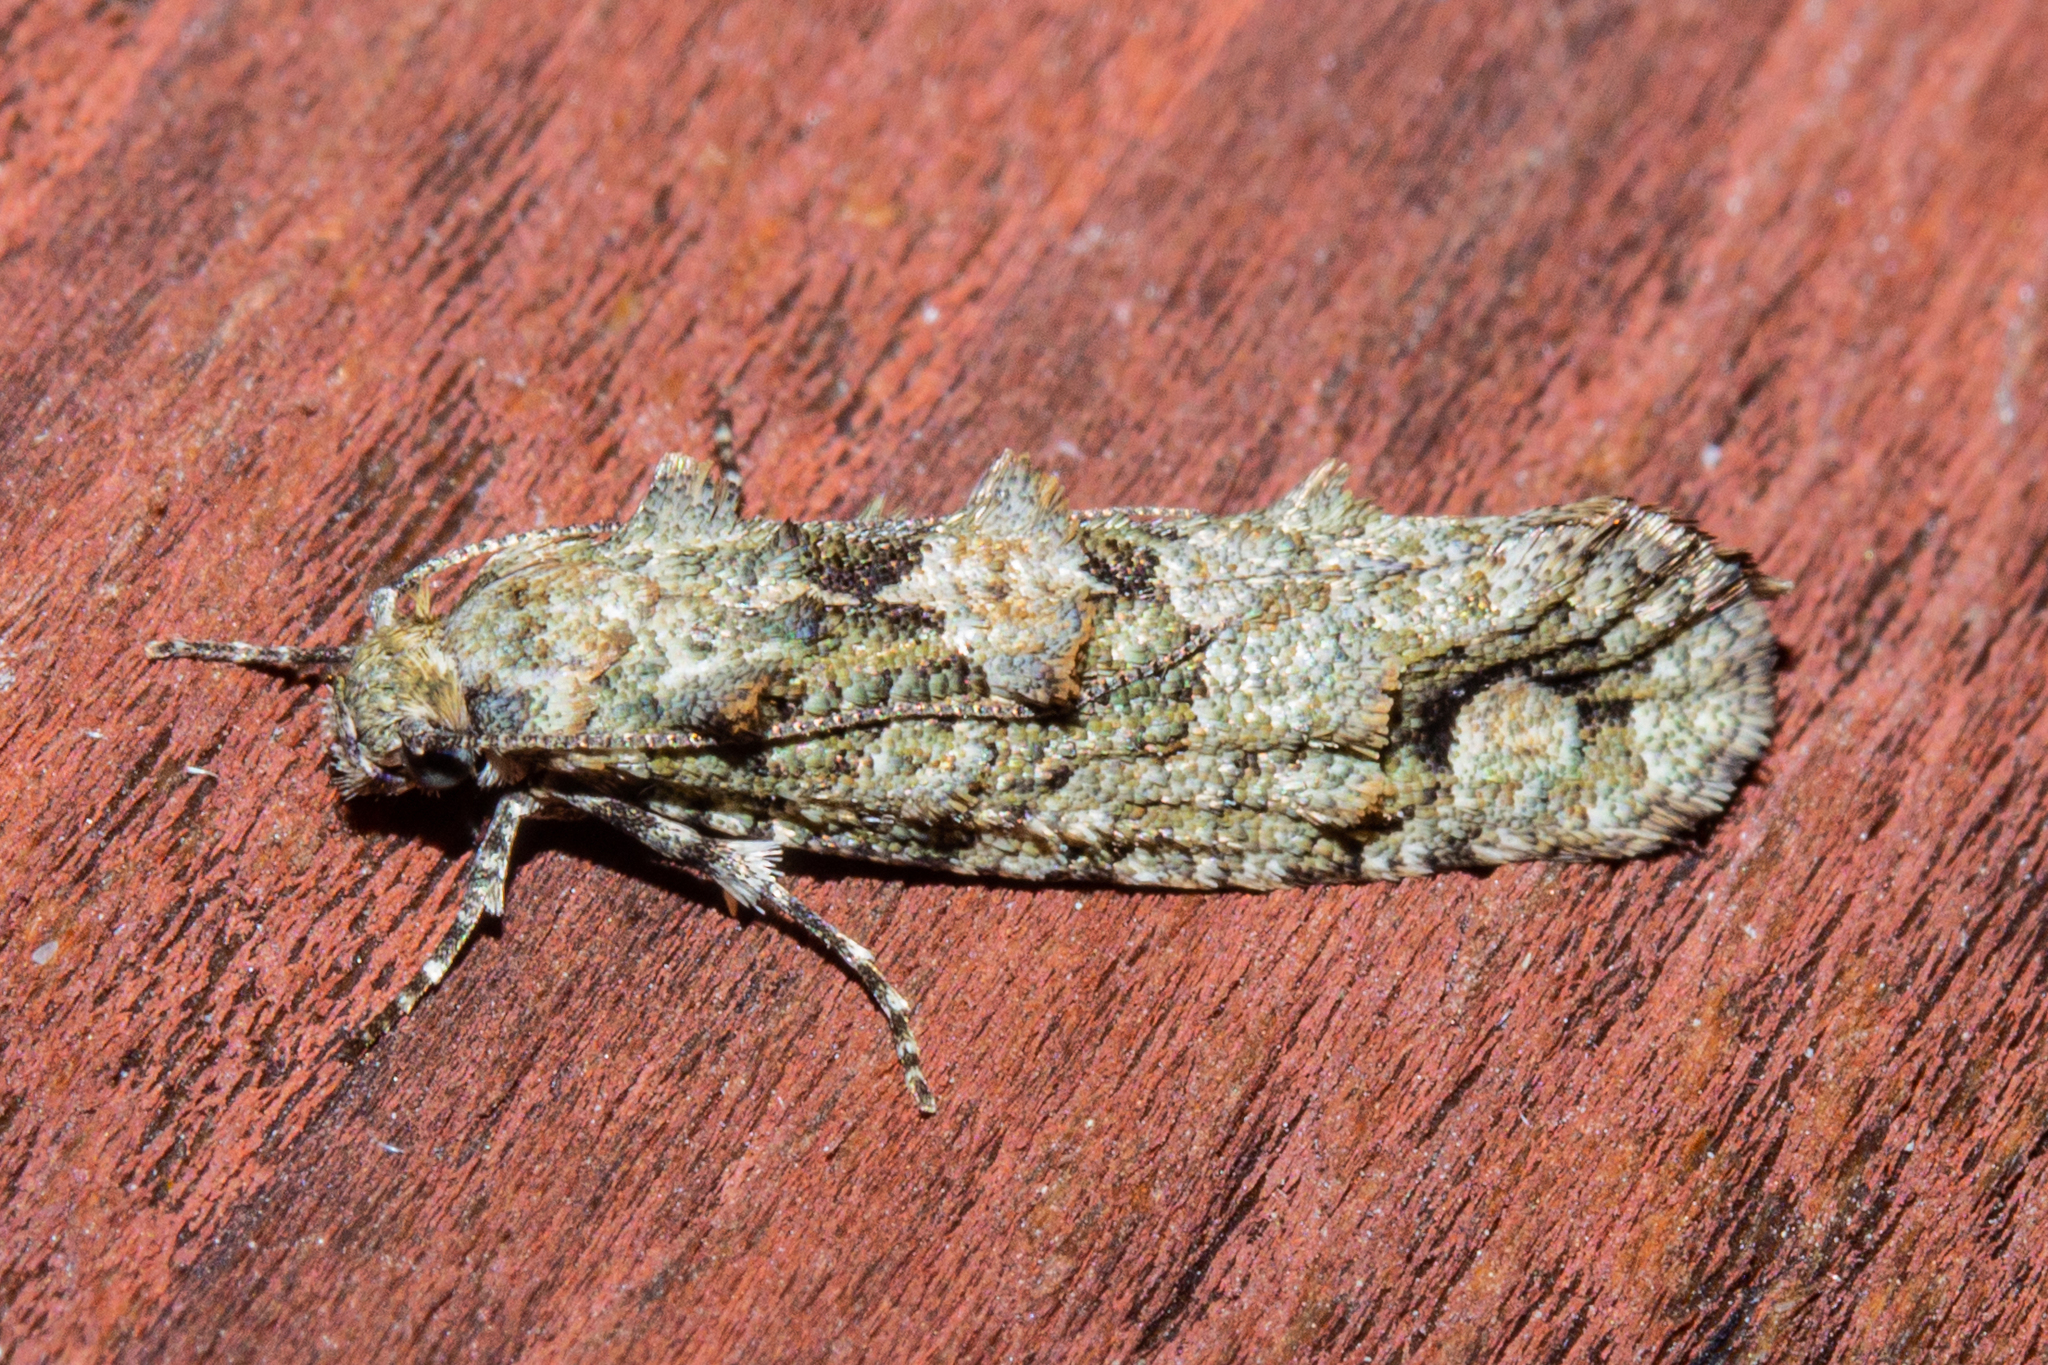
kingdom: Animalia
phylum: Arthropoda
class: Insecta
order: Lepidoptera
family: Tineidae
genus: Lysiphragma
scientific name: Lysiphragma howesii
